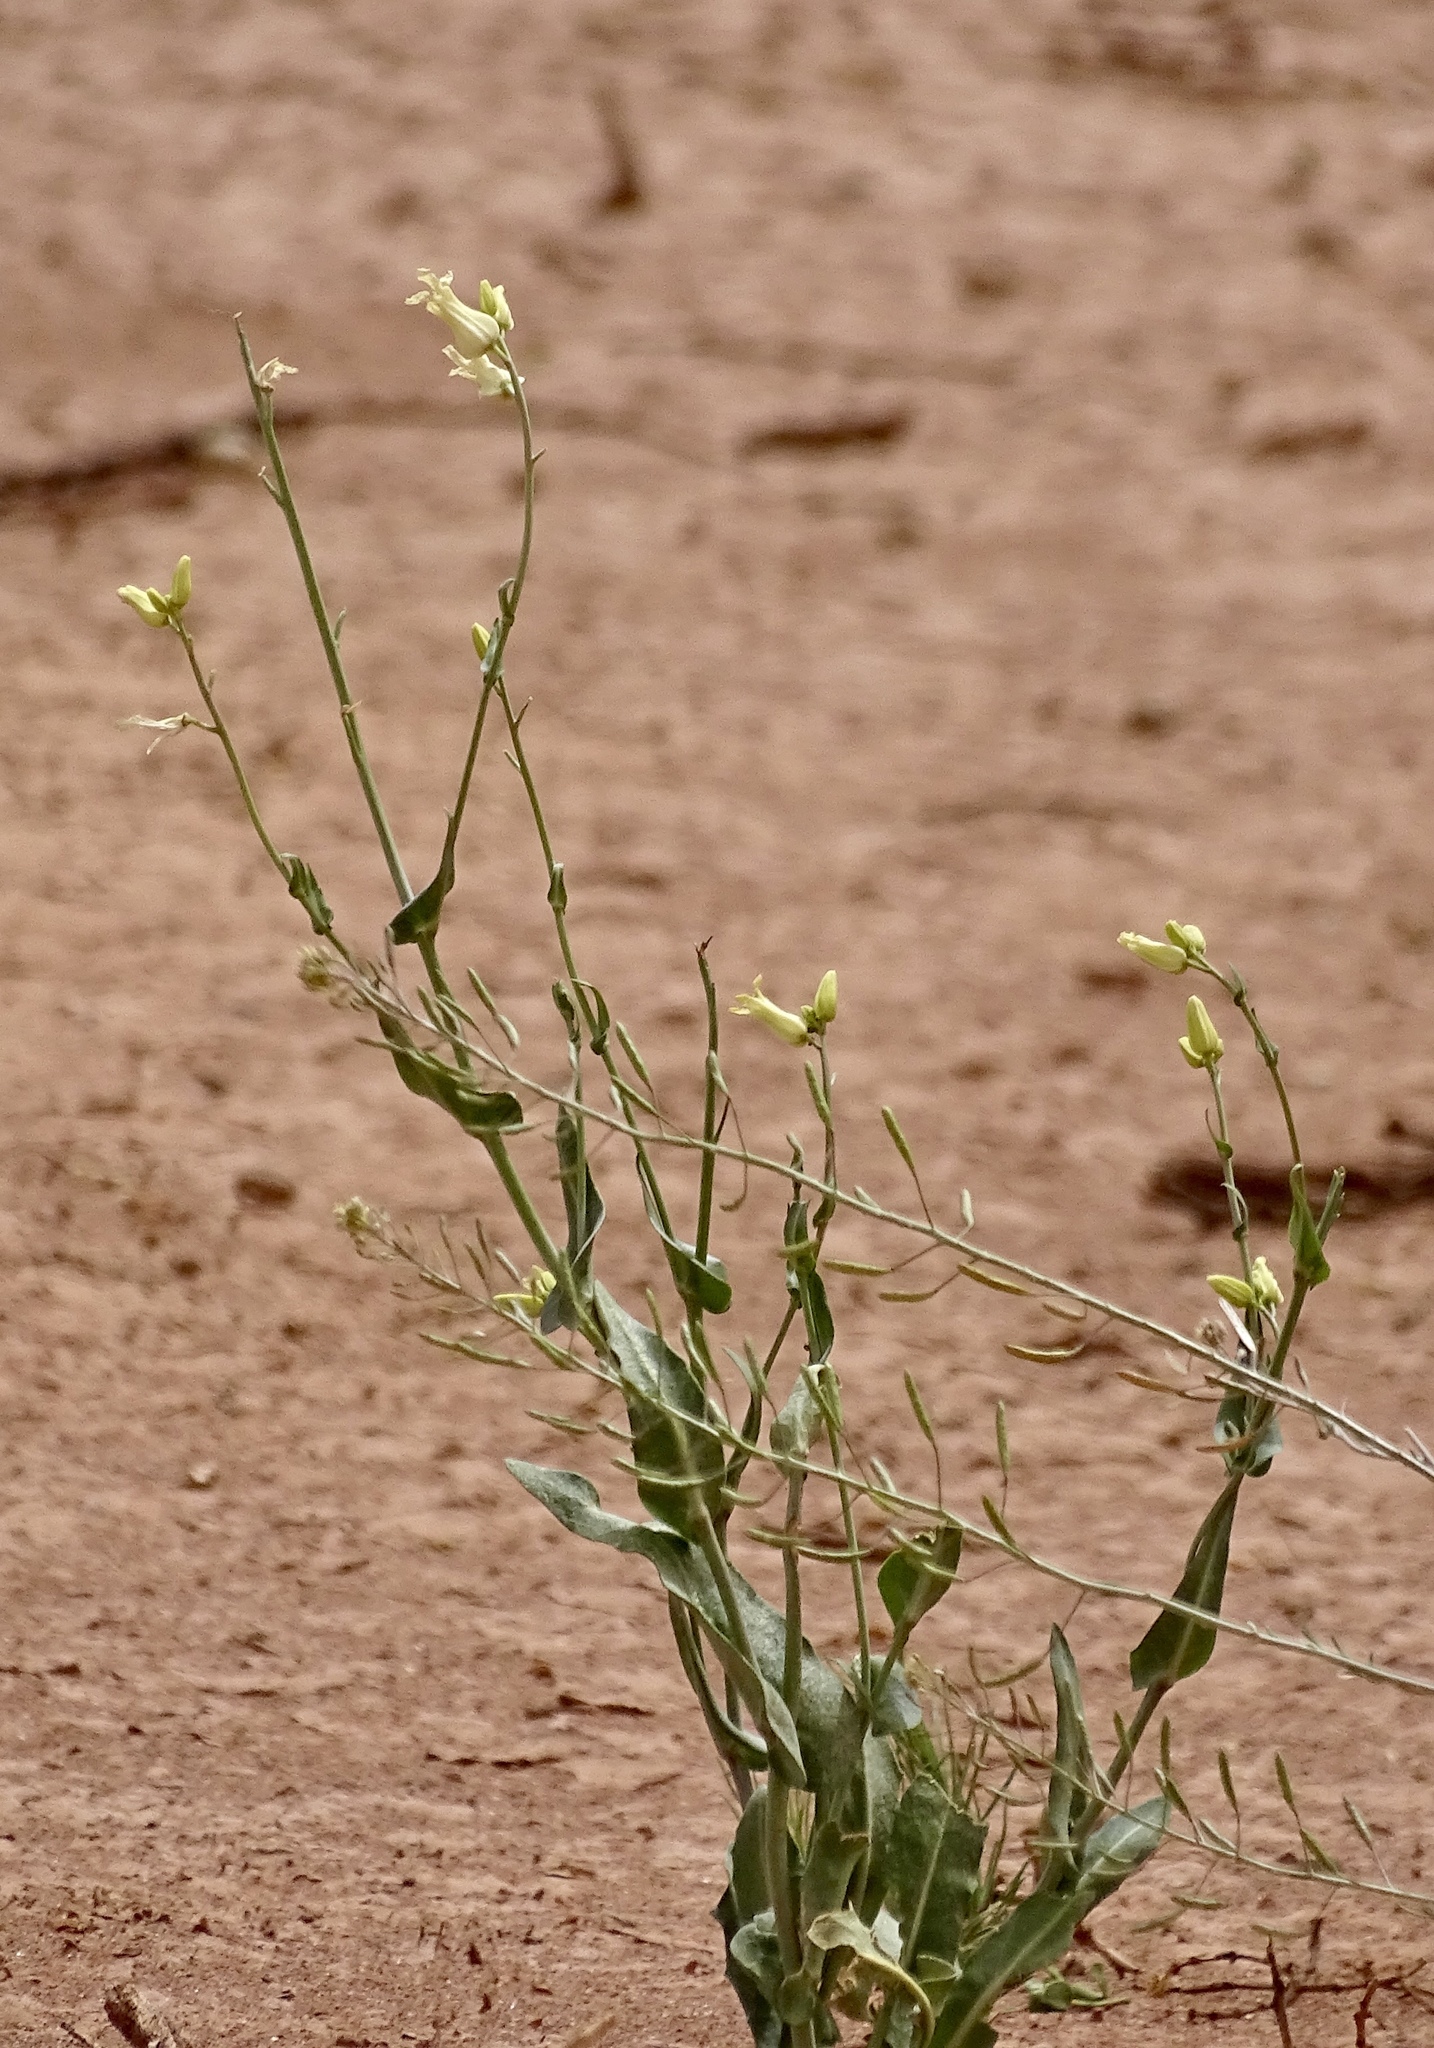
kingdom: Plantae
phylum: Tracheophyta
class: Magnoliopsida
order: Brassicales
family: Brassicaceae
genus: Streptanthus
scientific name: Streptanthus carinatus
